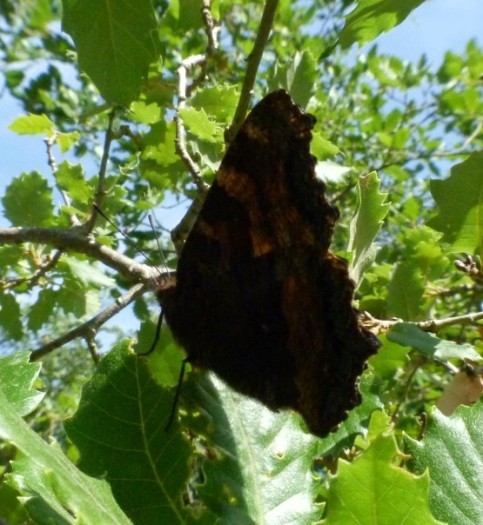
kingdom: Animalia
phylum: Arthropoda
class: Insecta
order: Lepidoptera
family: Nymphalidae
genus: Nymphalis
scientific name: Nymphalis polychloros
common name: Large tortoiseshell
